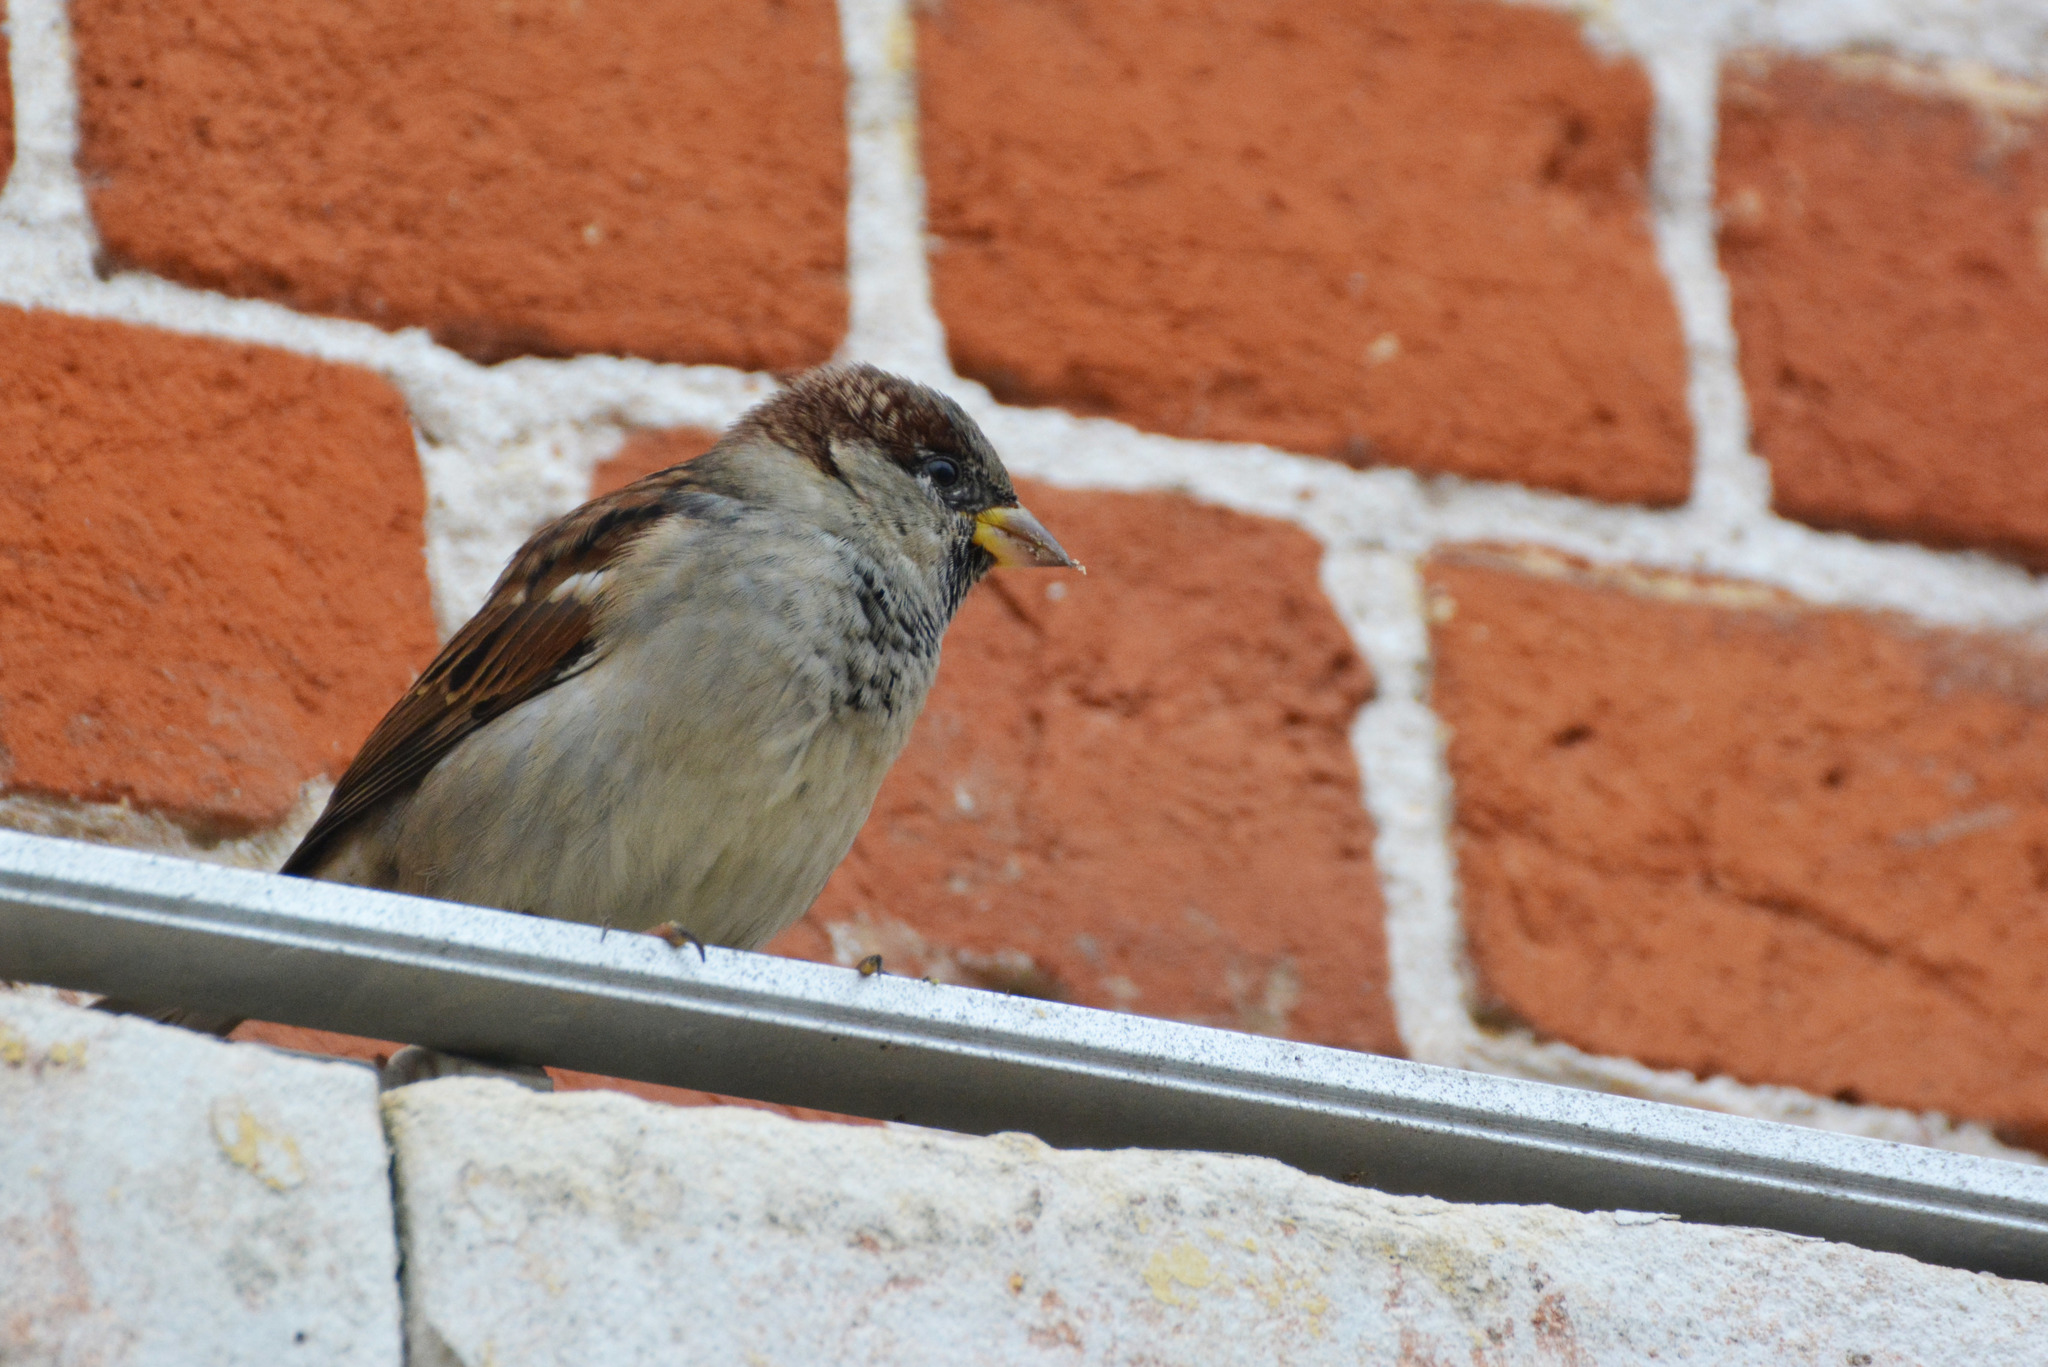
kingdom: Animalia
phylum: Chordata
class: Aves
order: Passeriformes
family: Passeridae
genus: Passer
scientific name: Passer domesticus
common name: House sparrow
